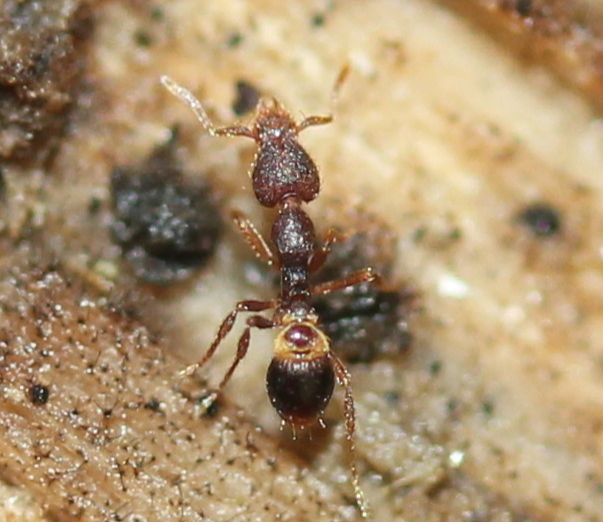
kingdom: Animalia
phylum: Arthropoda
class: Insecta
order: Hymenoptera
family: Formicidae
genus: Pyramica
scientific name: Pyramica rostrata
